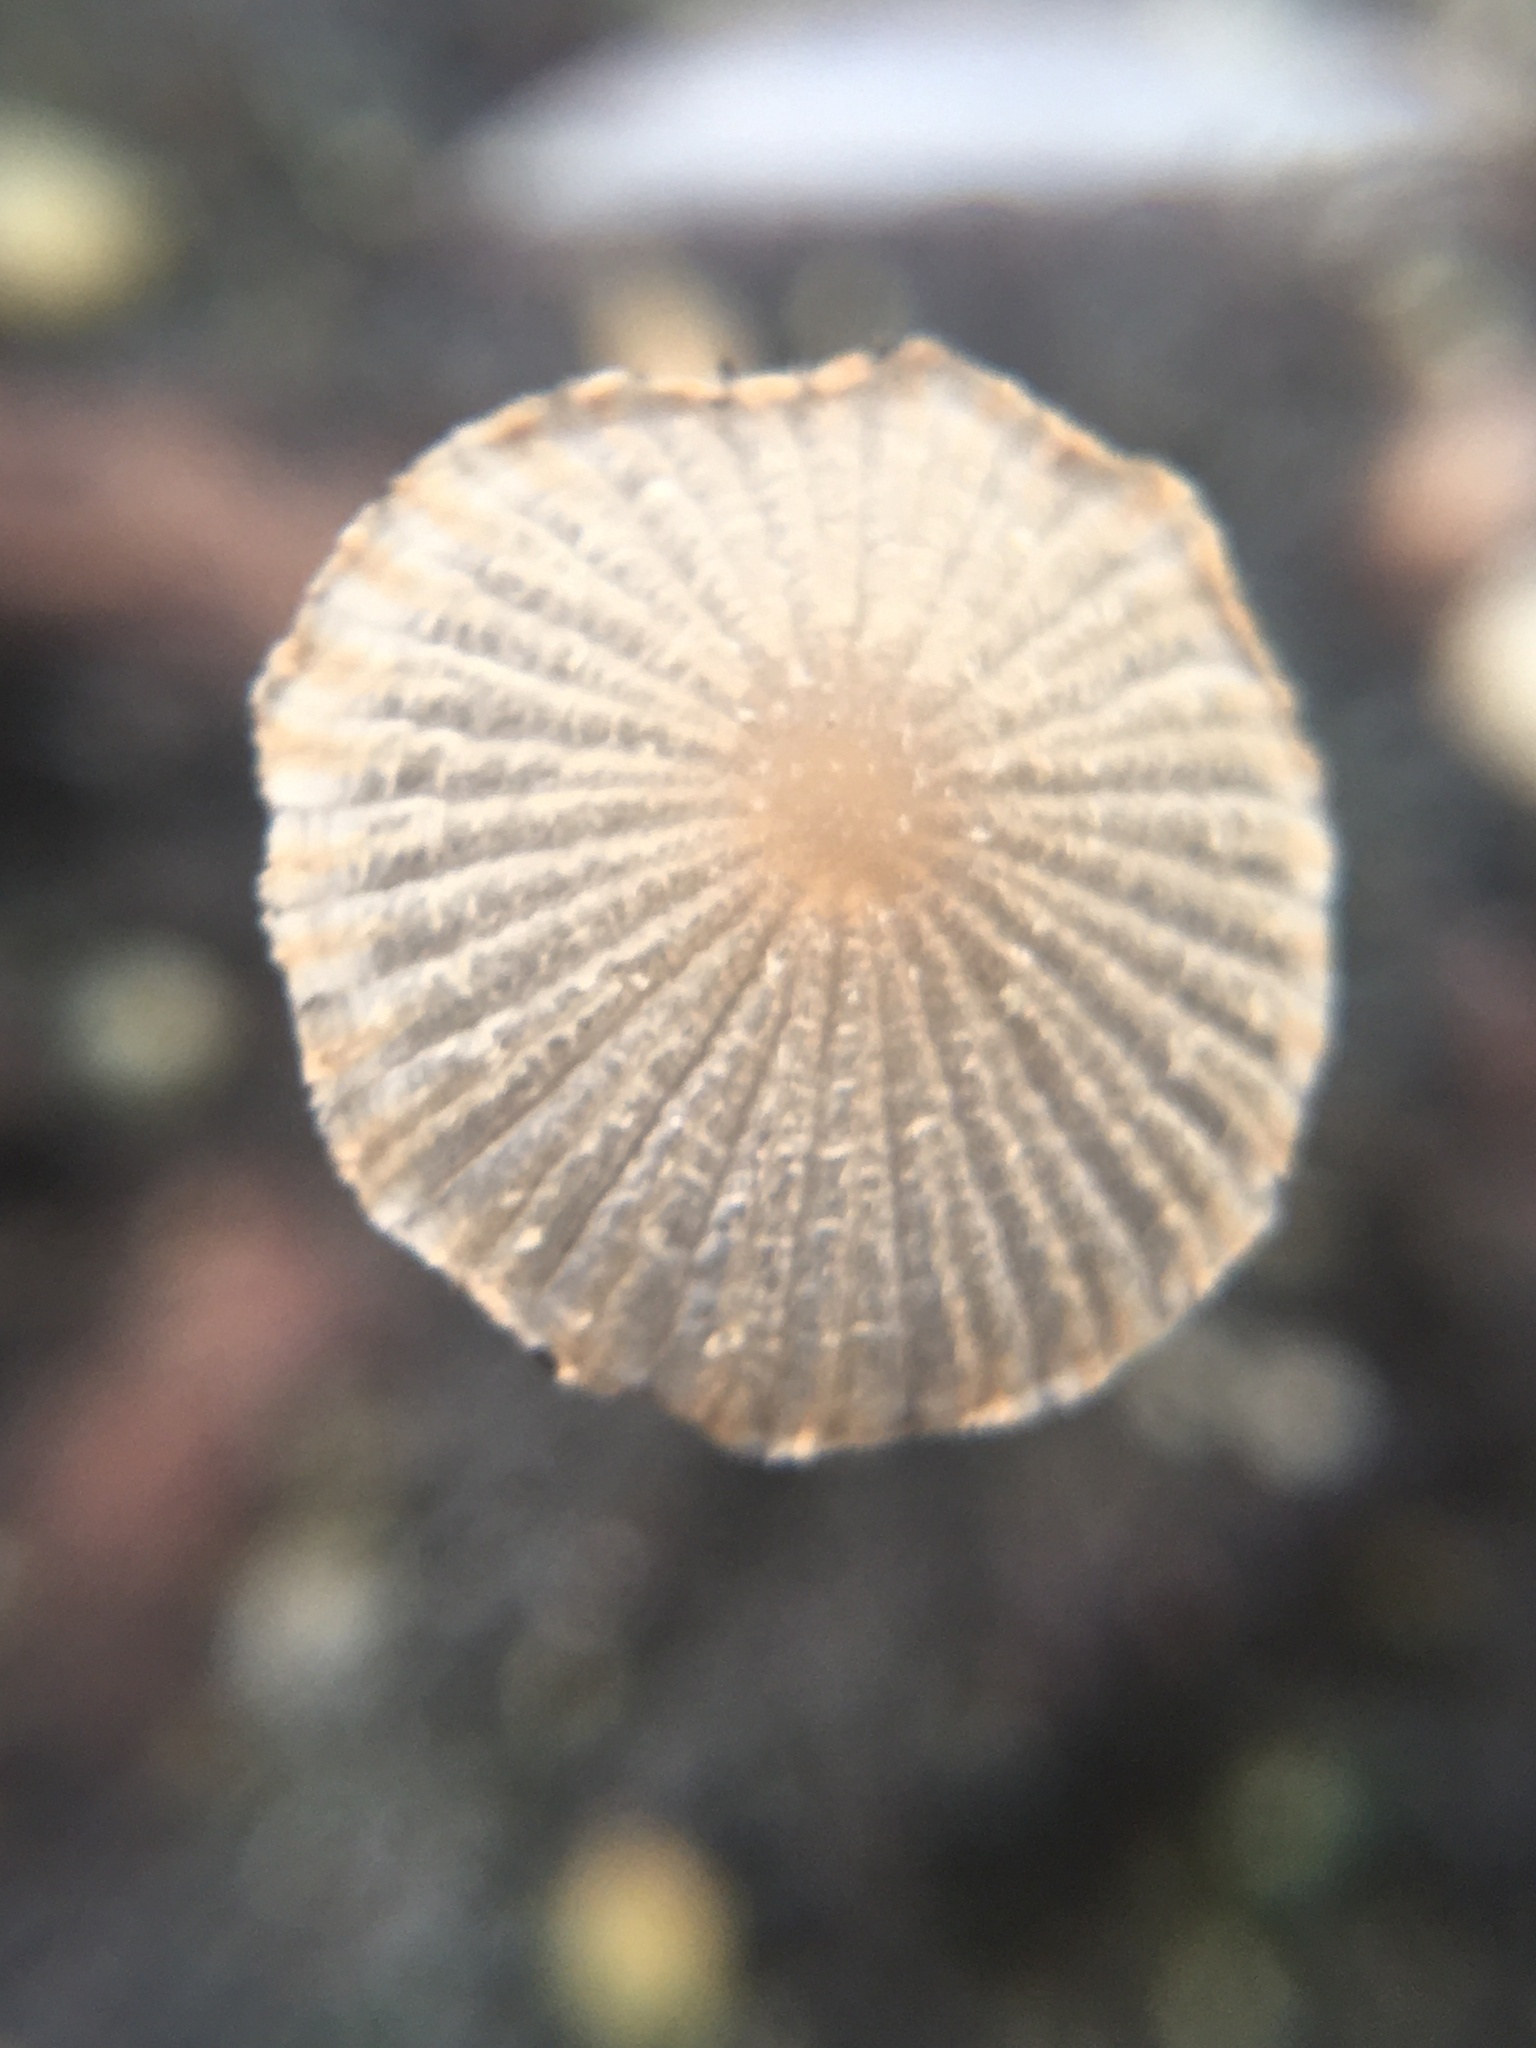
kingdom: Fungi
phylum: Basidiomycota
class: Agaricomycetes
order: Agaricales
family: Psathyrellaceae
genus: Parasola
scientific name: Parasola plicatilis
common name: Pleated inkcap
